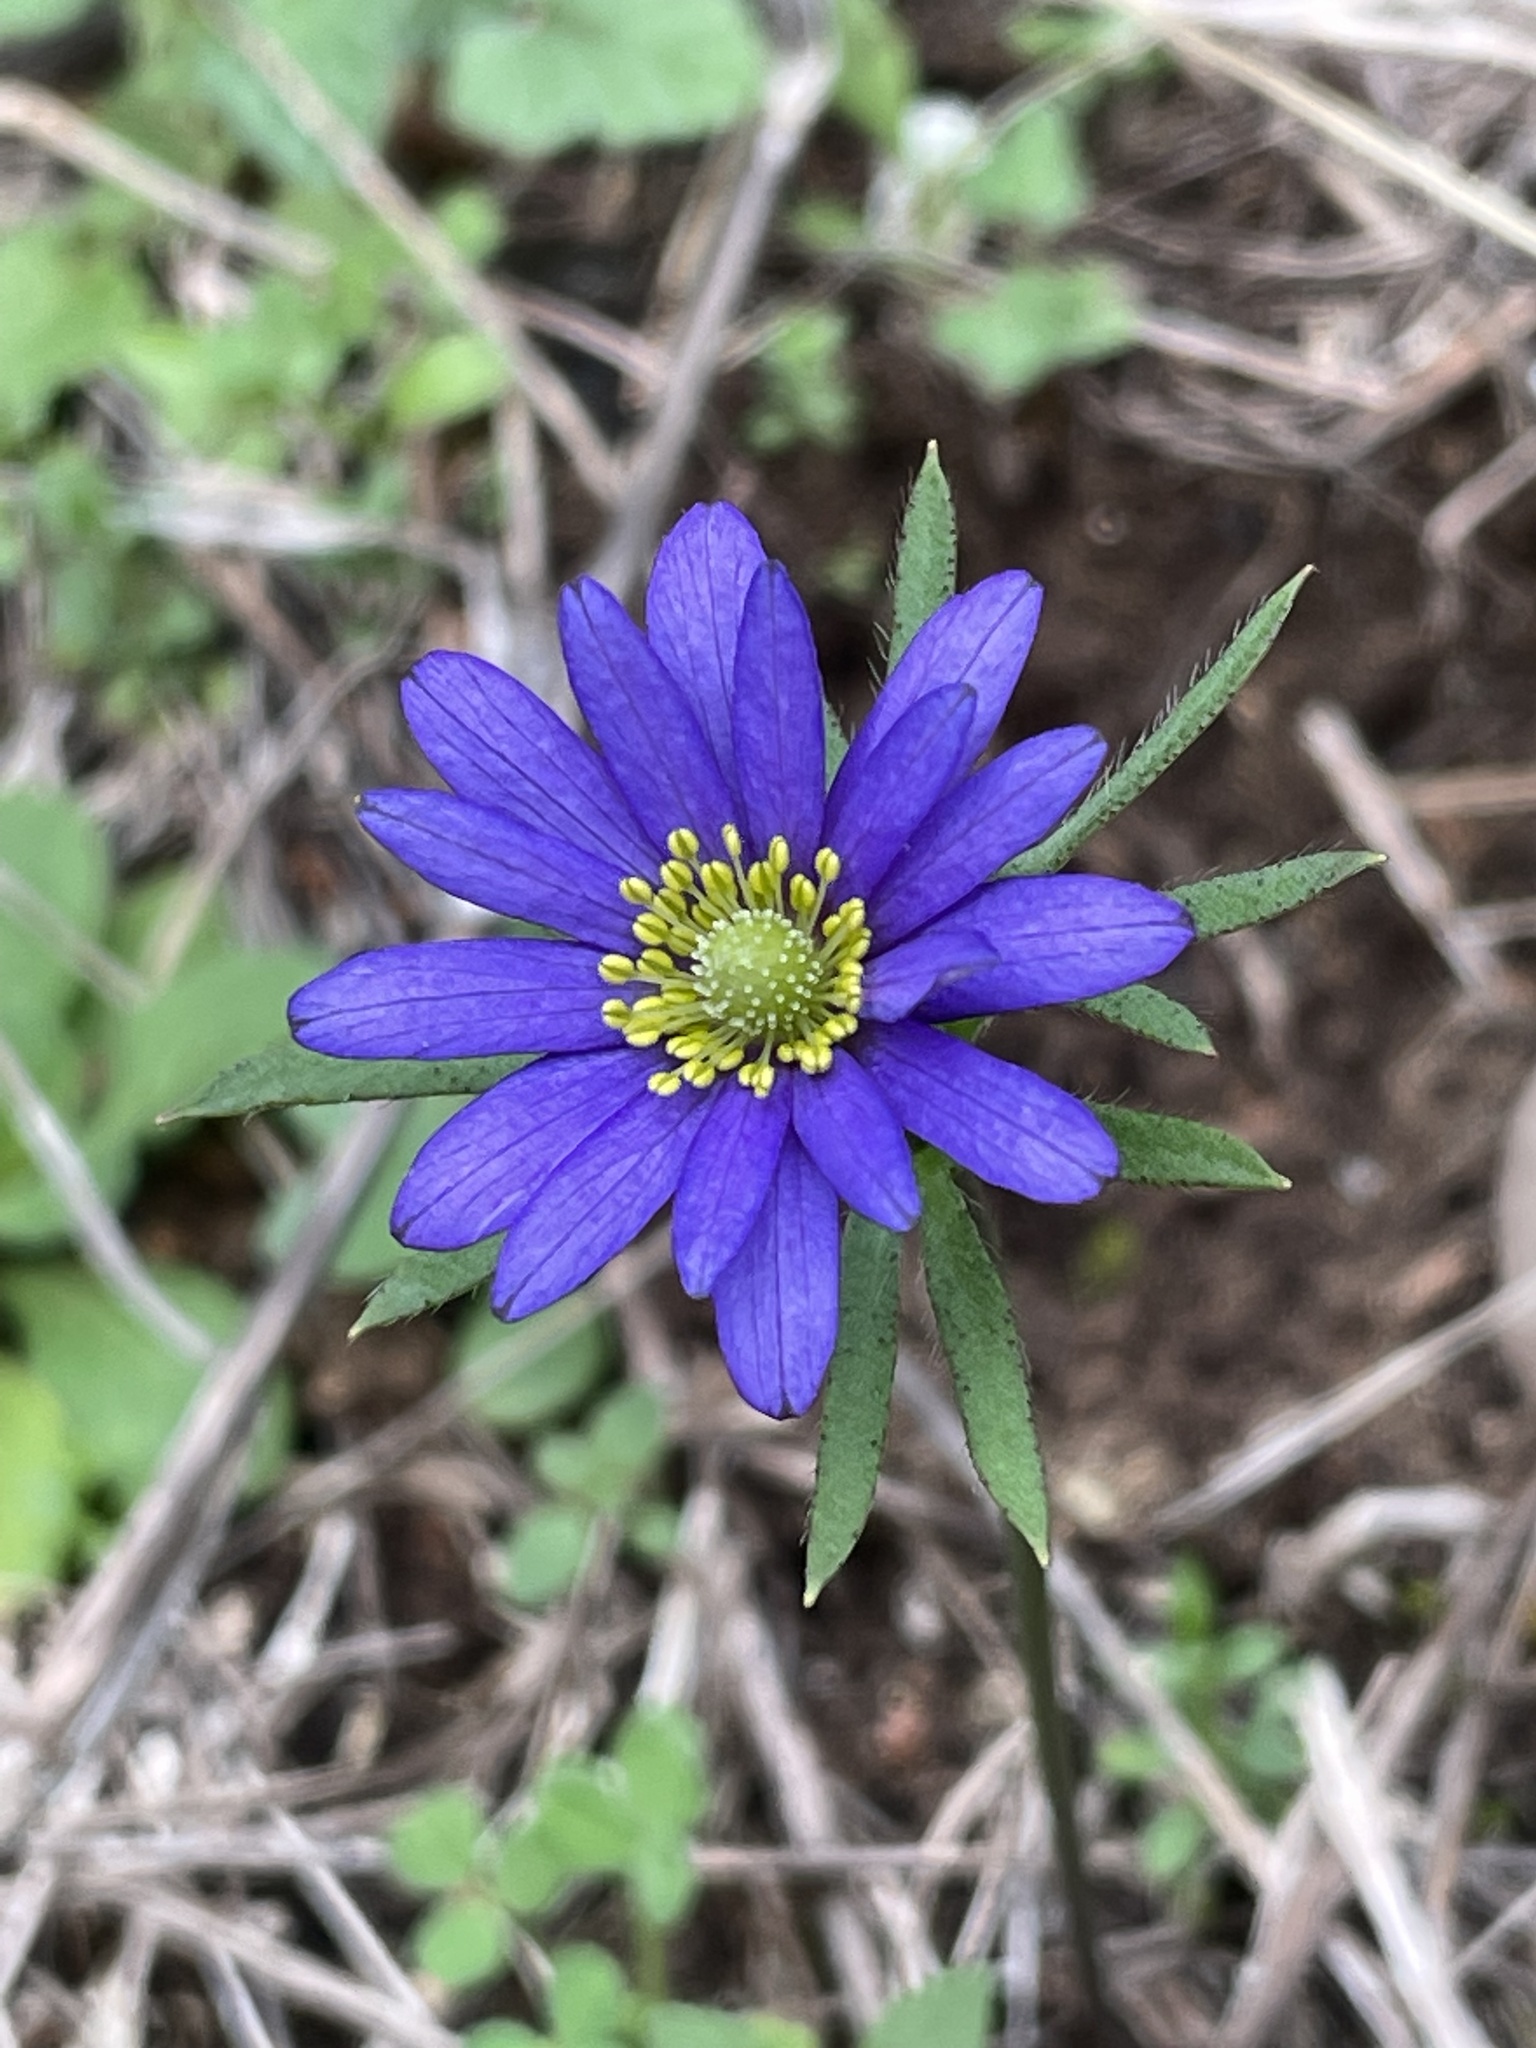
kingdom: Plantae
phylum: Tracheophyta
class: Magnoliopsida
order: Ranunculales
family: Ranunculaceae
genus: Anemone
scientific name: Anemone berlandieri
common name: Ten-petal anemone
